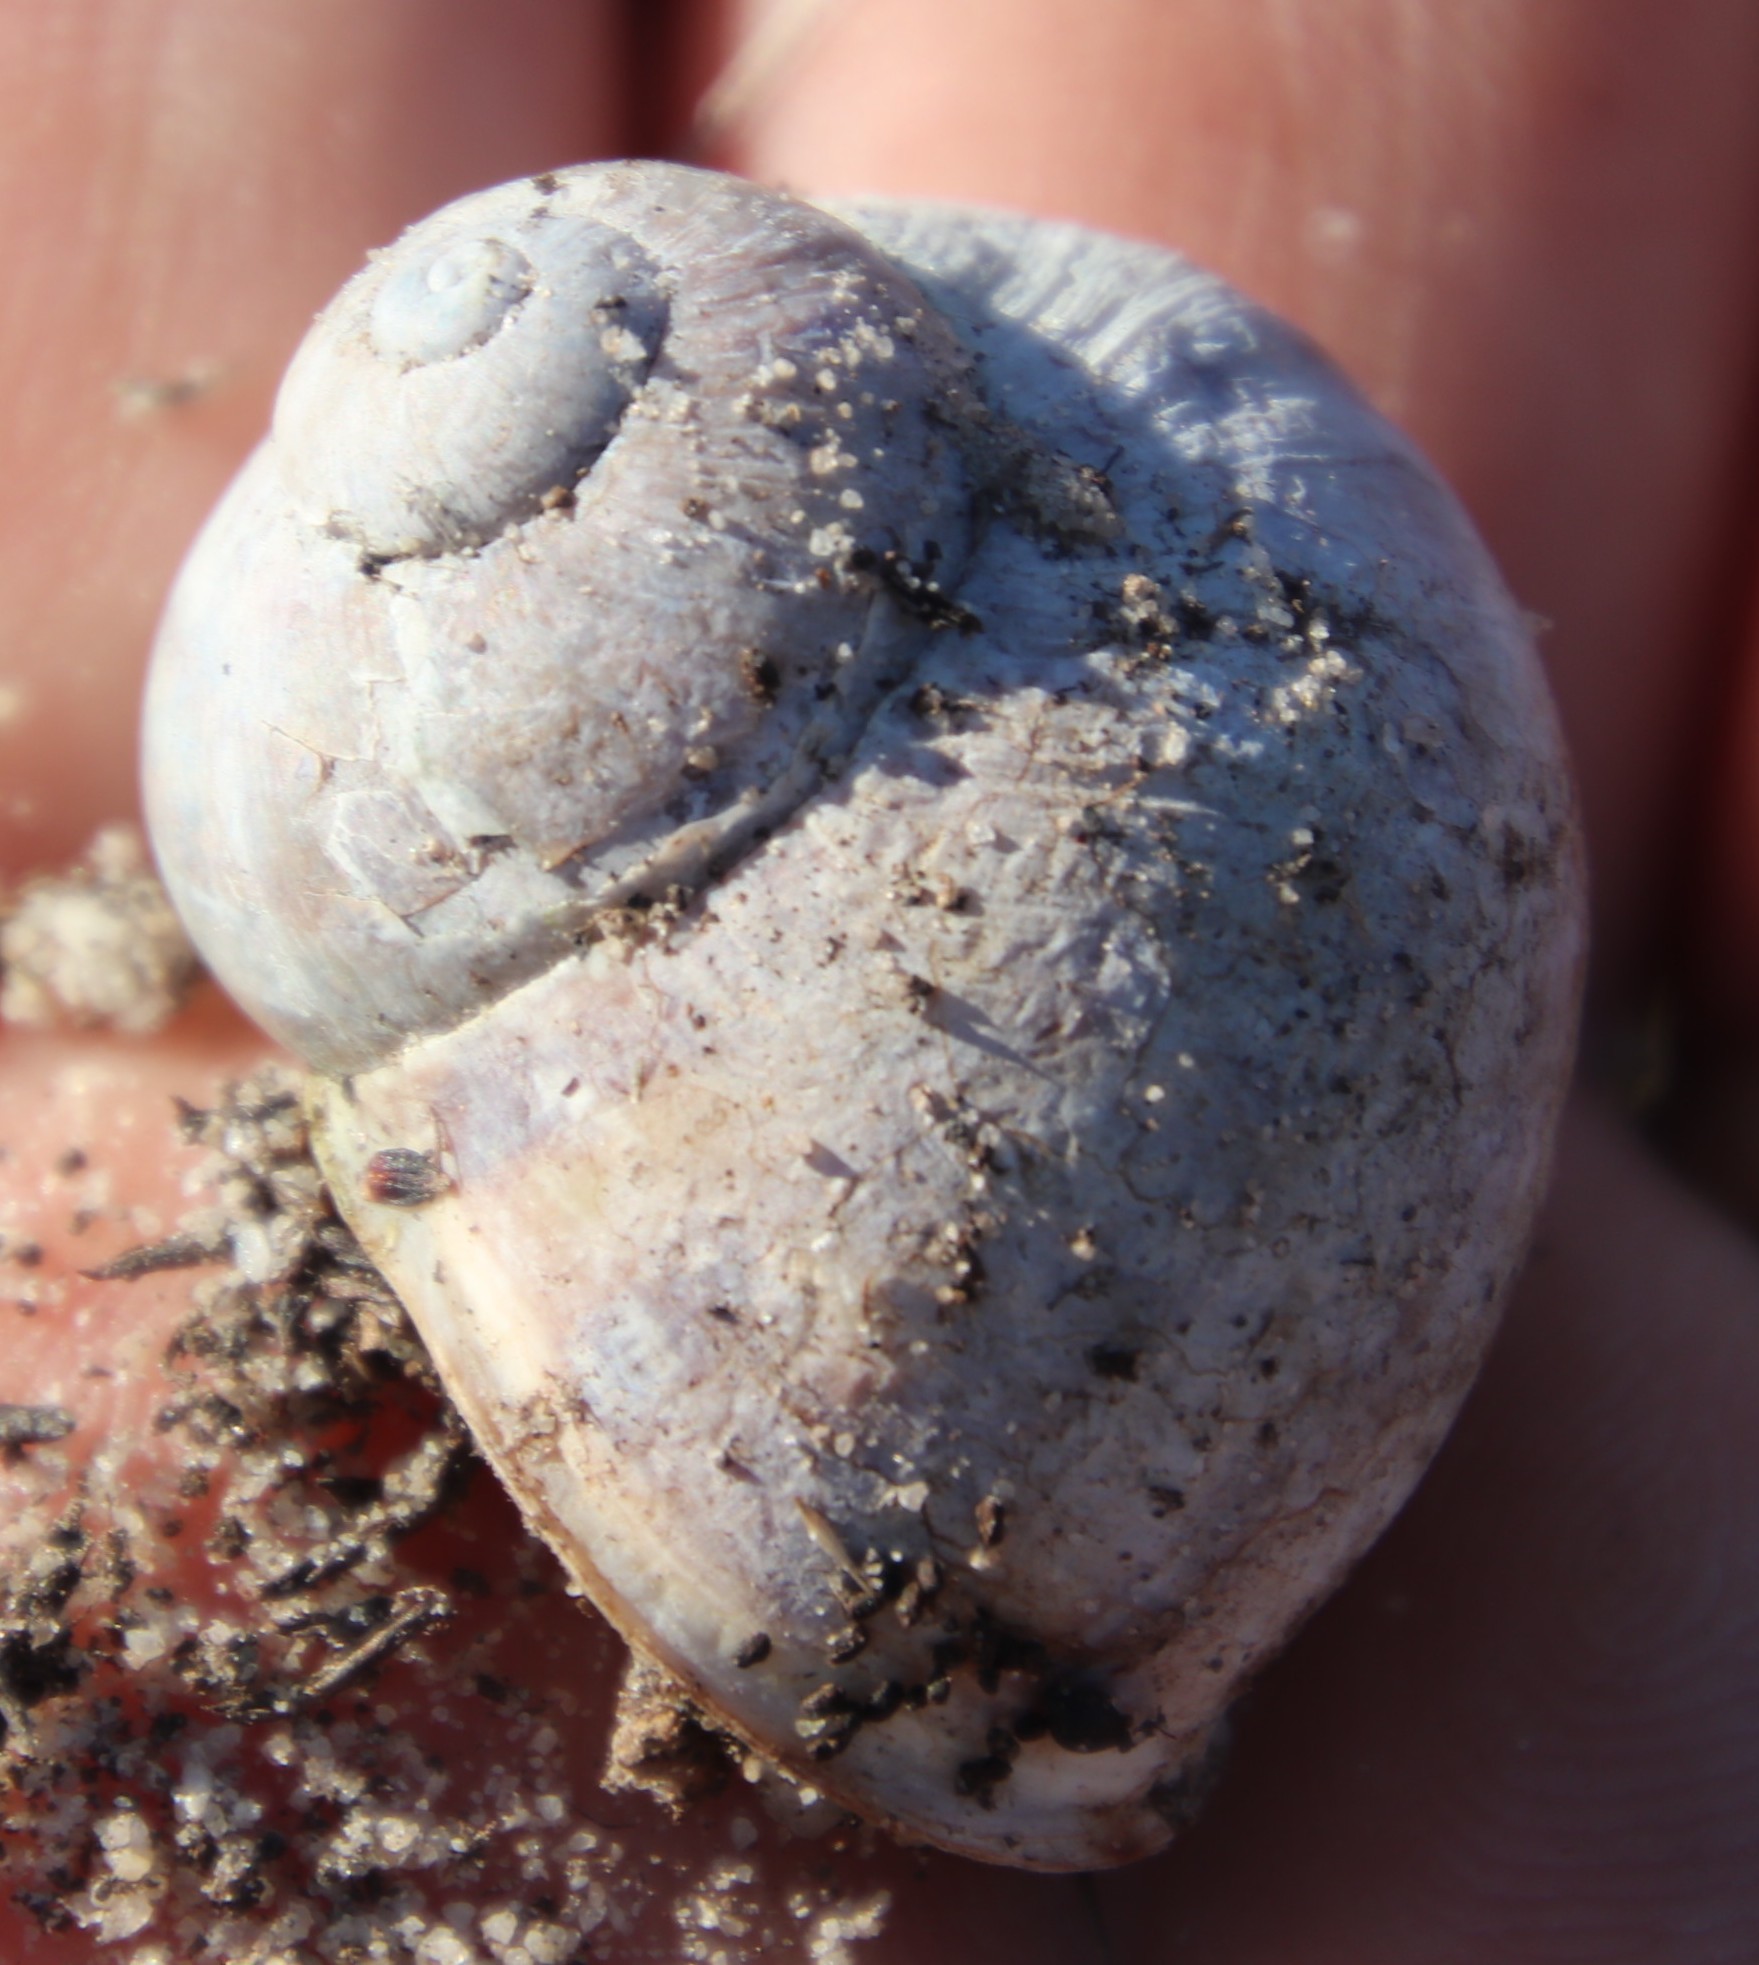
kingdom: Animalia
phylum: Mollusca
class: Gastropoda
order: Stylommatophora
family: Helicidae
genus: Cornu
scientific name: Cornu aspersum
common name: Brown garden snail
